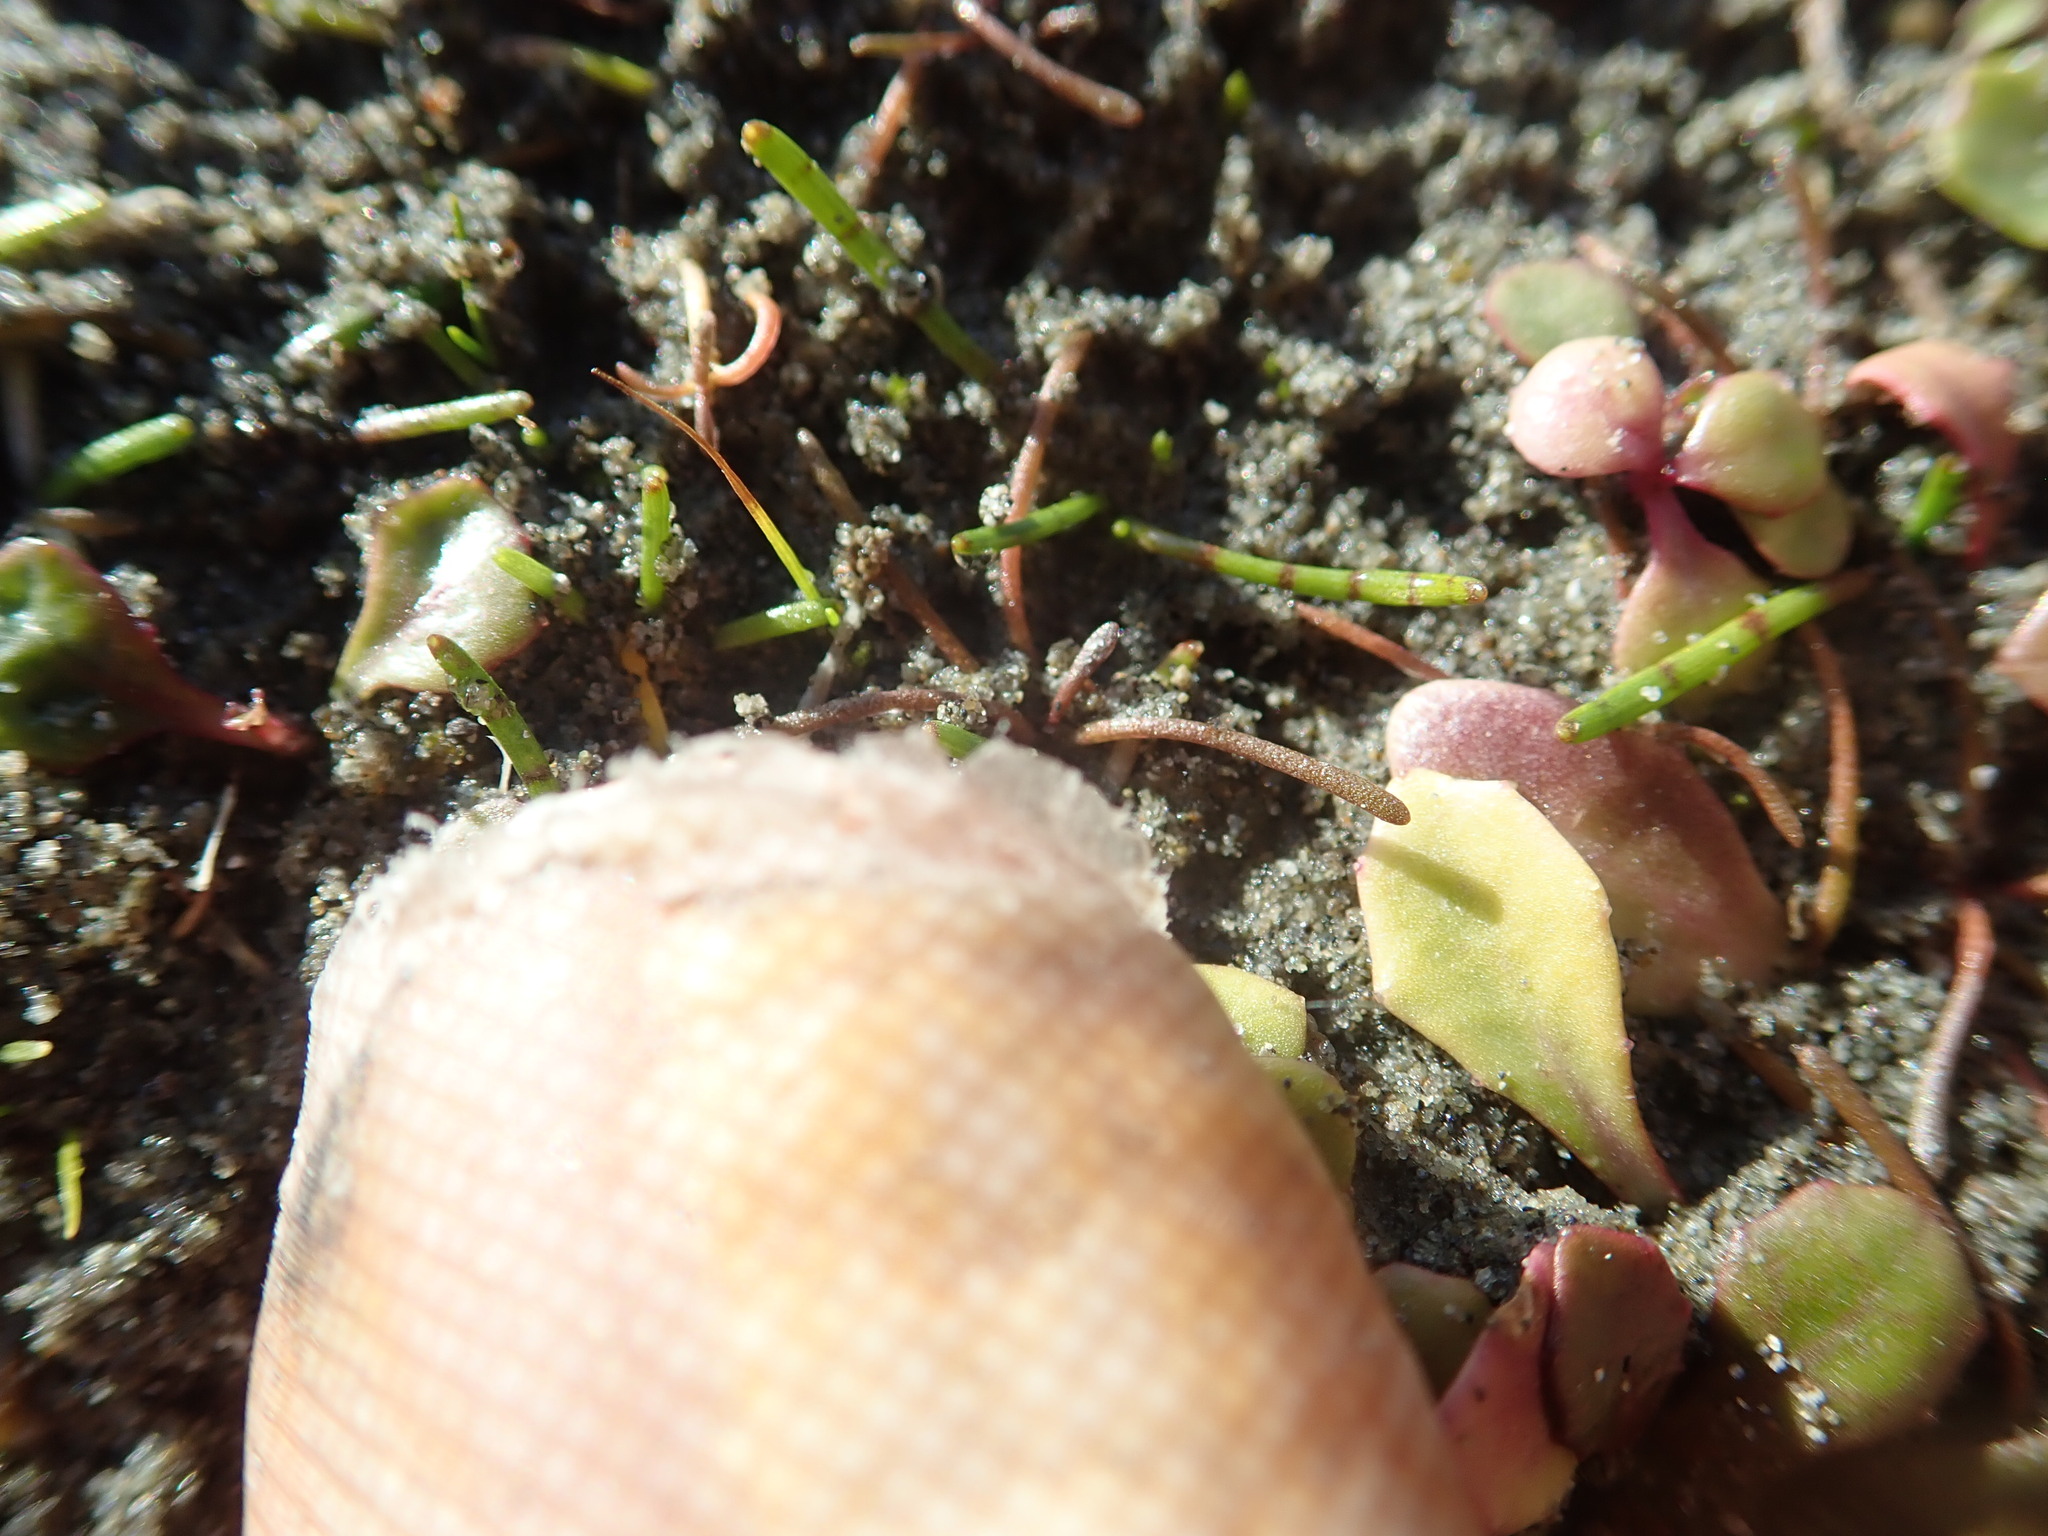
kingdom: Plantae
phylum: Tracheophyta
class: Magnoliopsida
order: Lamiales
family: Scrophulariaceae
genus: Limosella
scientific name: Limosella australis
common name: Welsh mudwort
